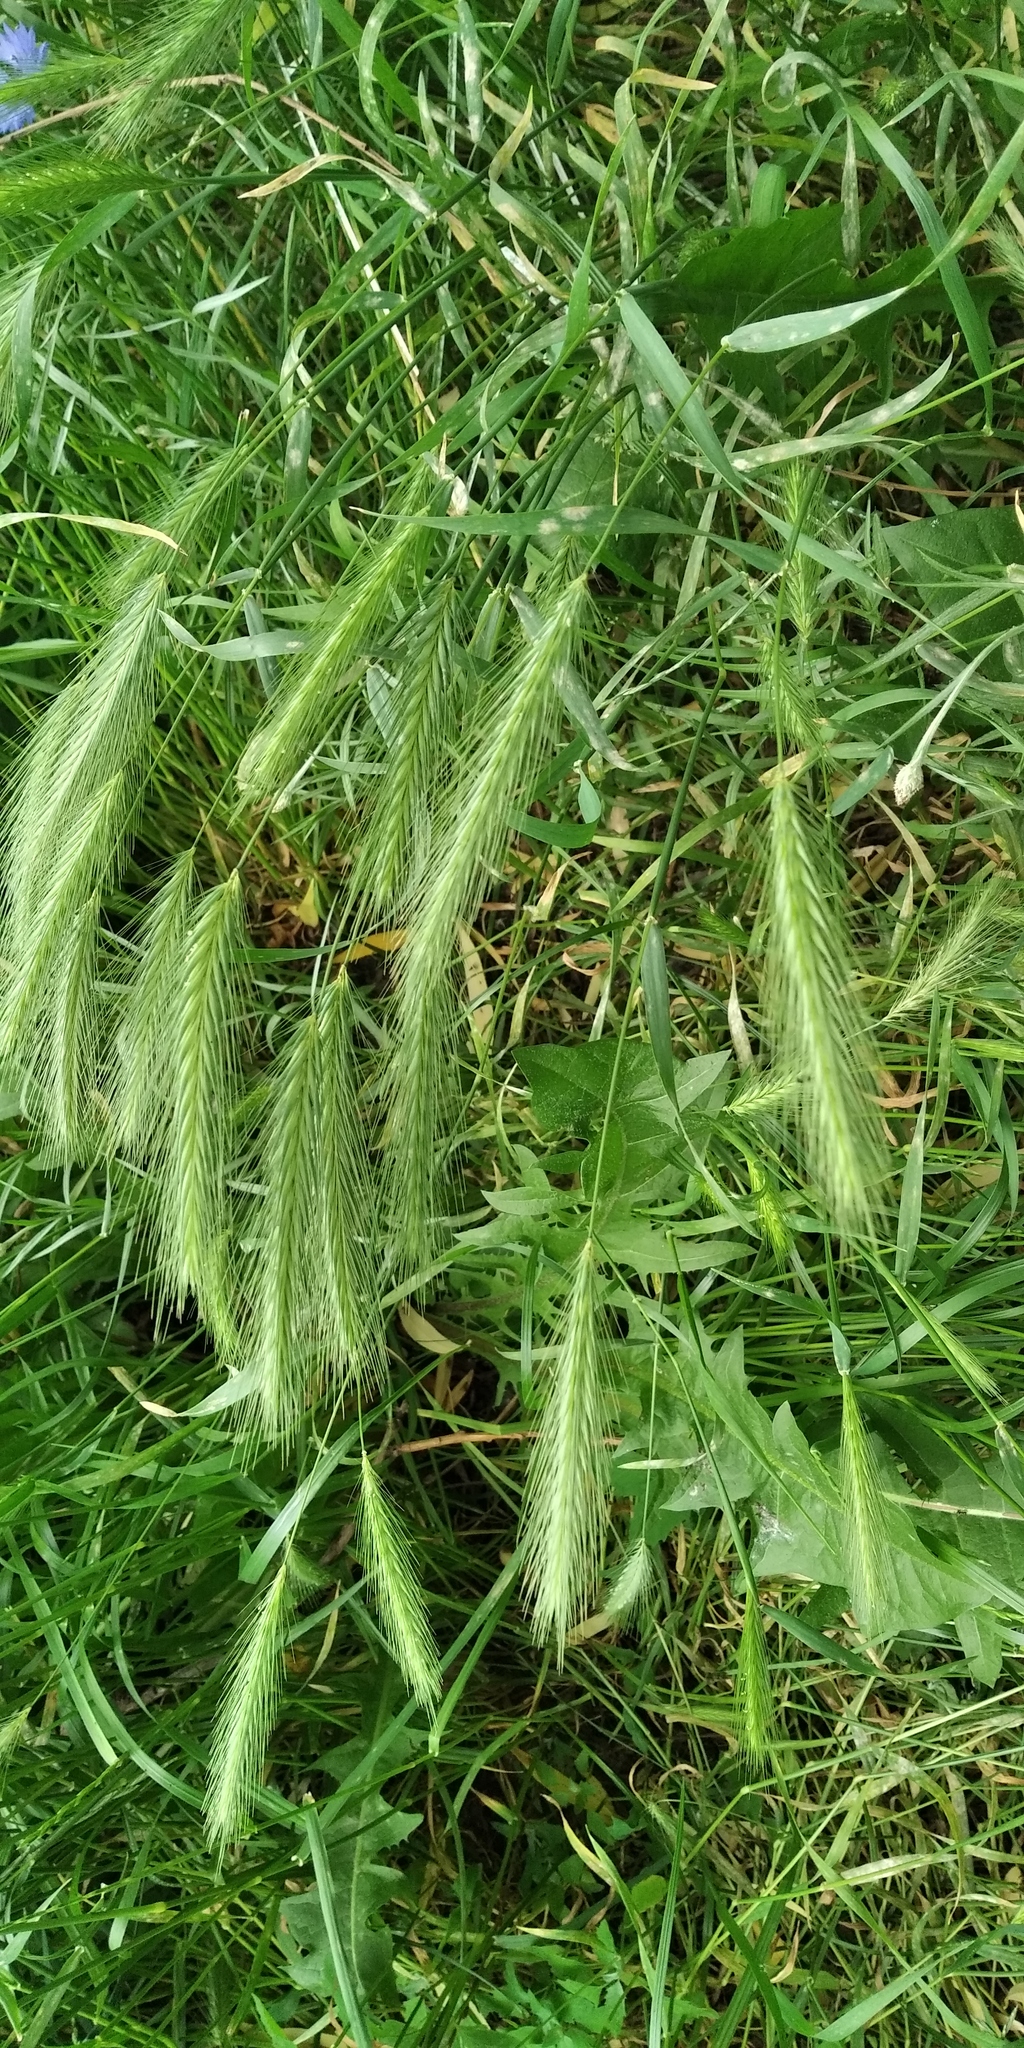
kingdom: Plantae
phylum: Tracheophyta
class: Liliopsida
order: Poales
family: Poaceae
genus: Hordeum
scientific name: Hordeum murinum
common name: Wall barley
